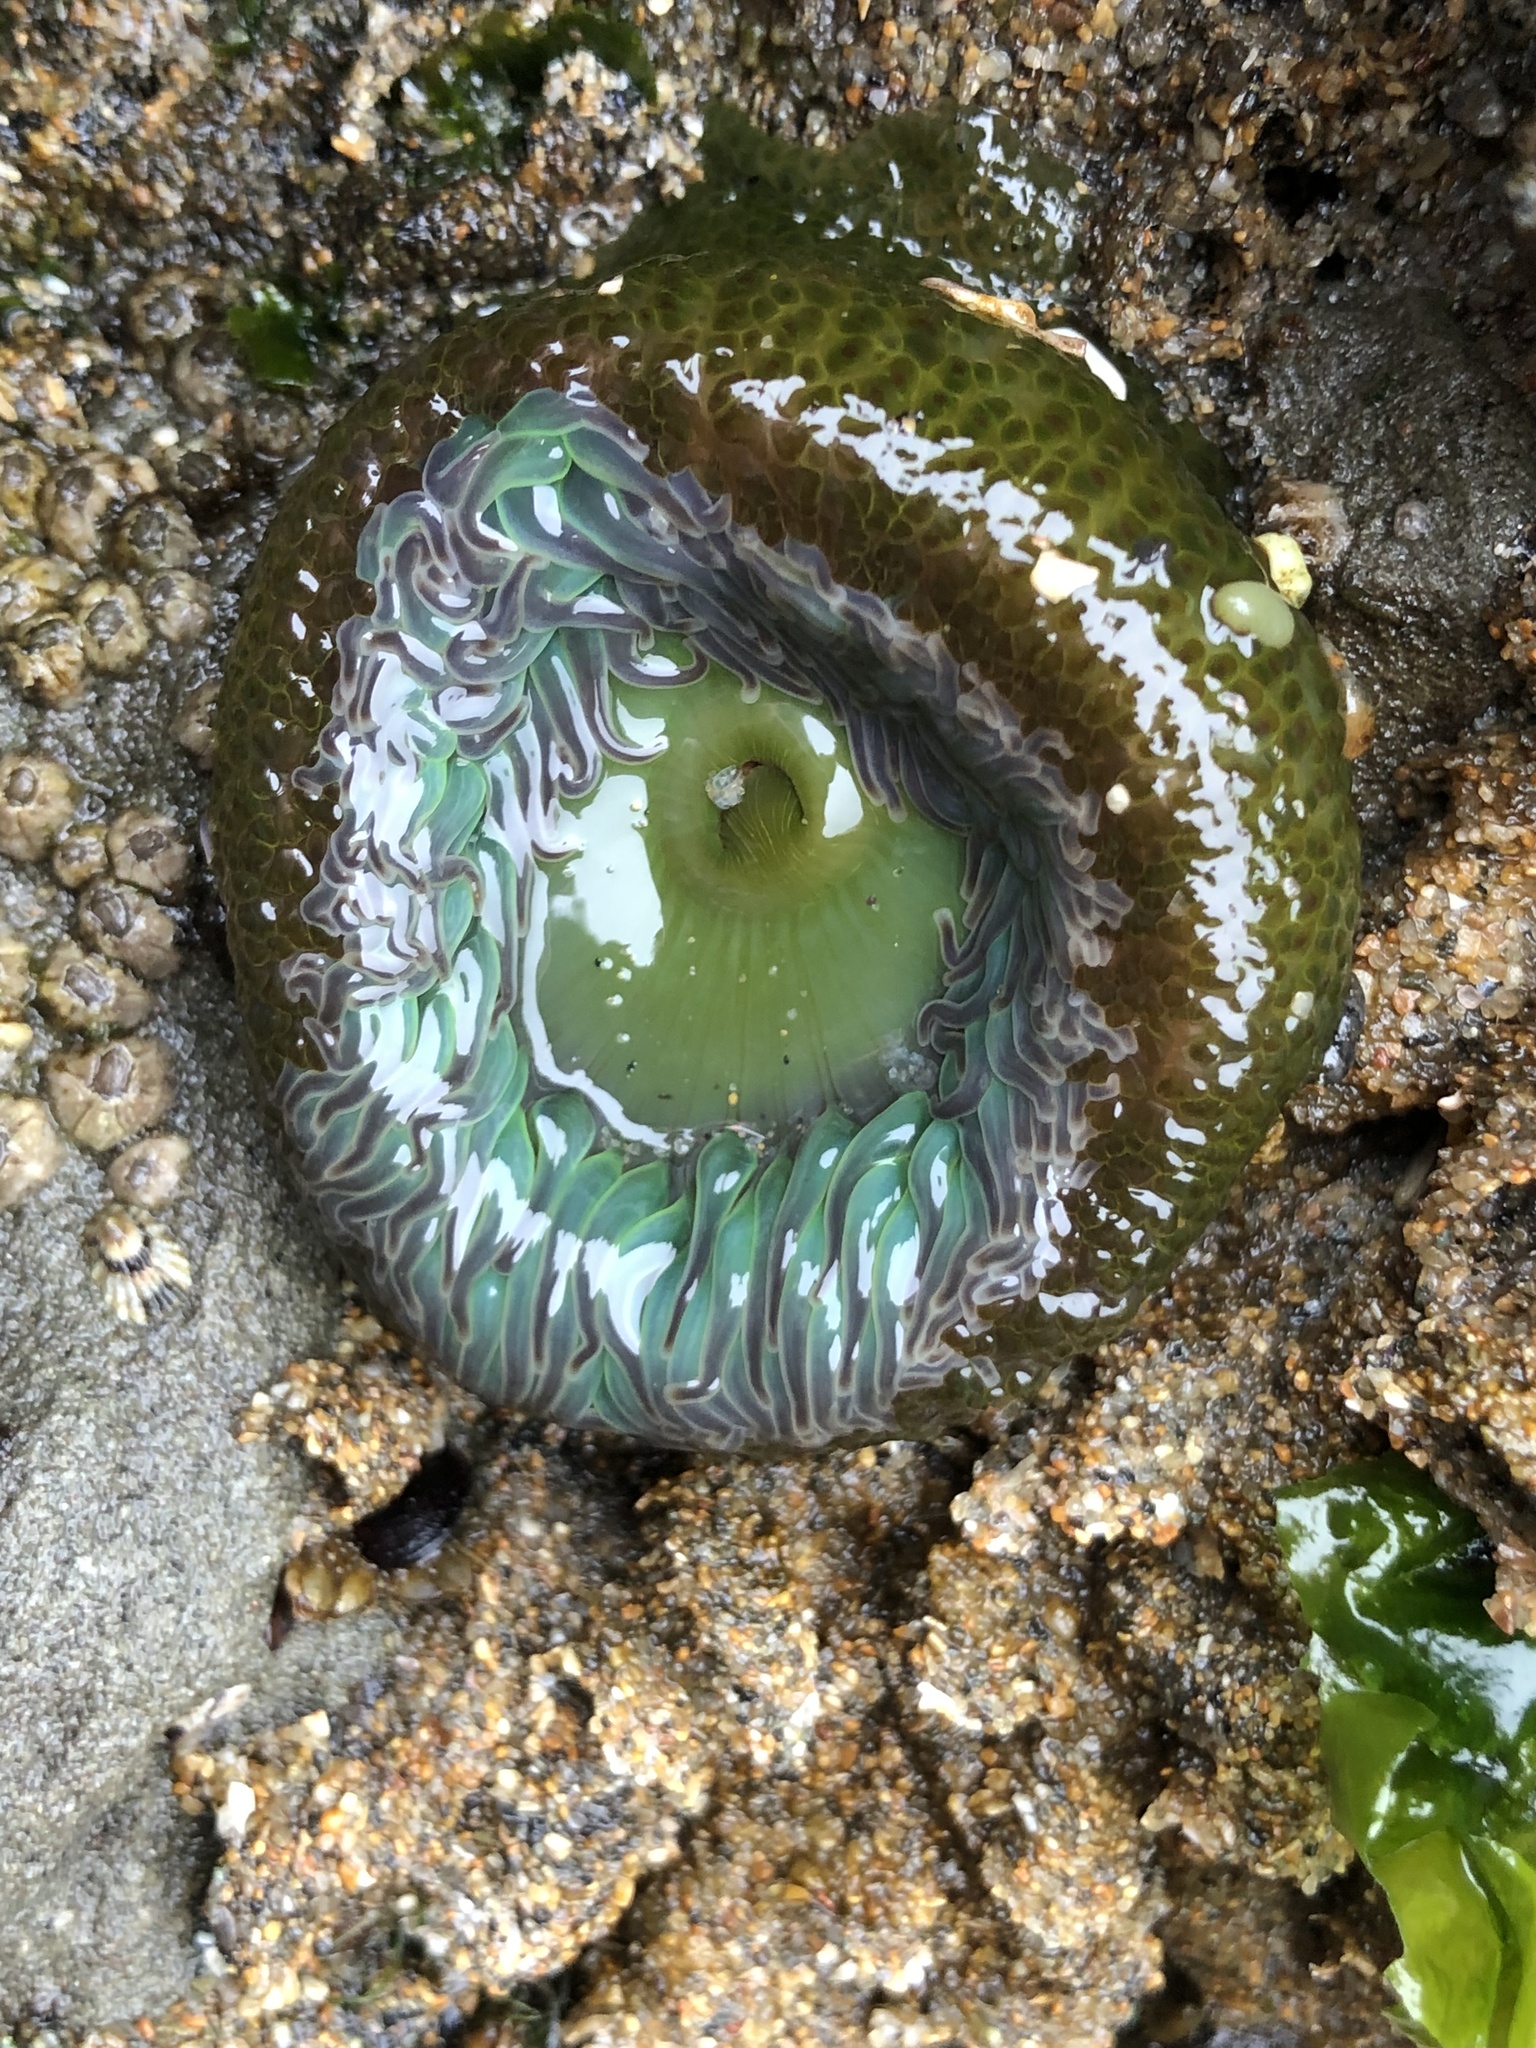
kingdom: Animalia
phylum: Cnidaria
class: Anthozoa
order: Actiniaria
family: Actiniidae
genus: Anthopleura
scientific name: Anthopleura xanthogrammica
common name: Giant green anemone
